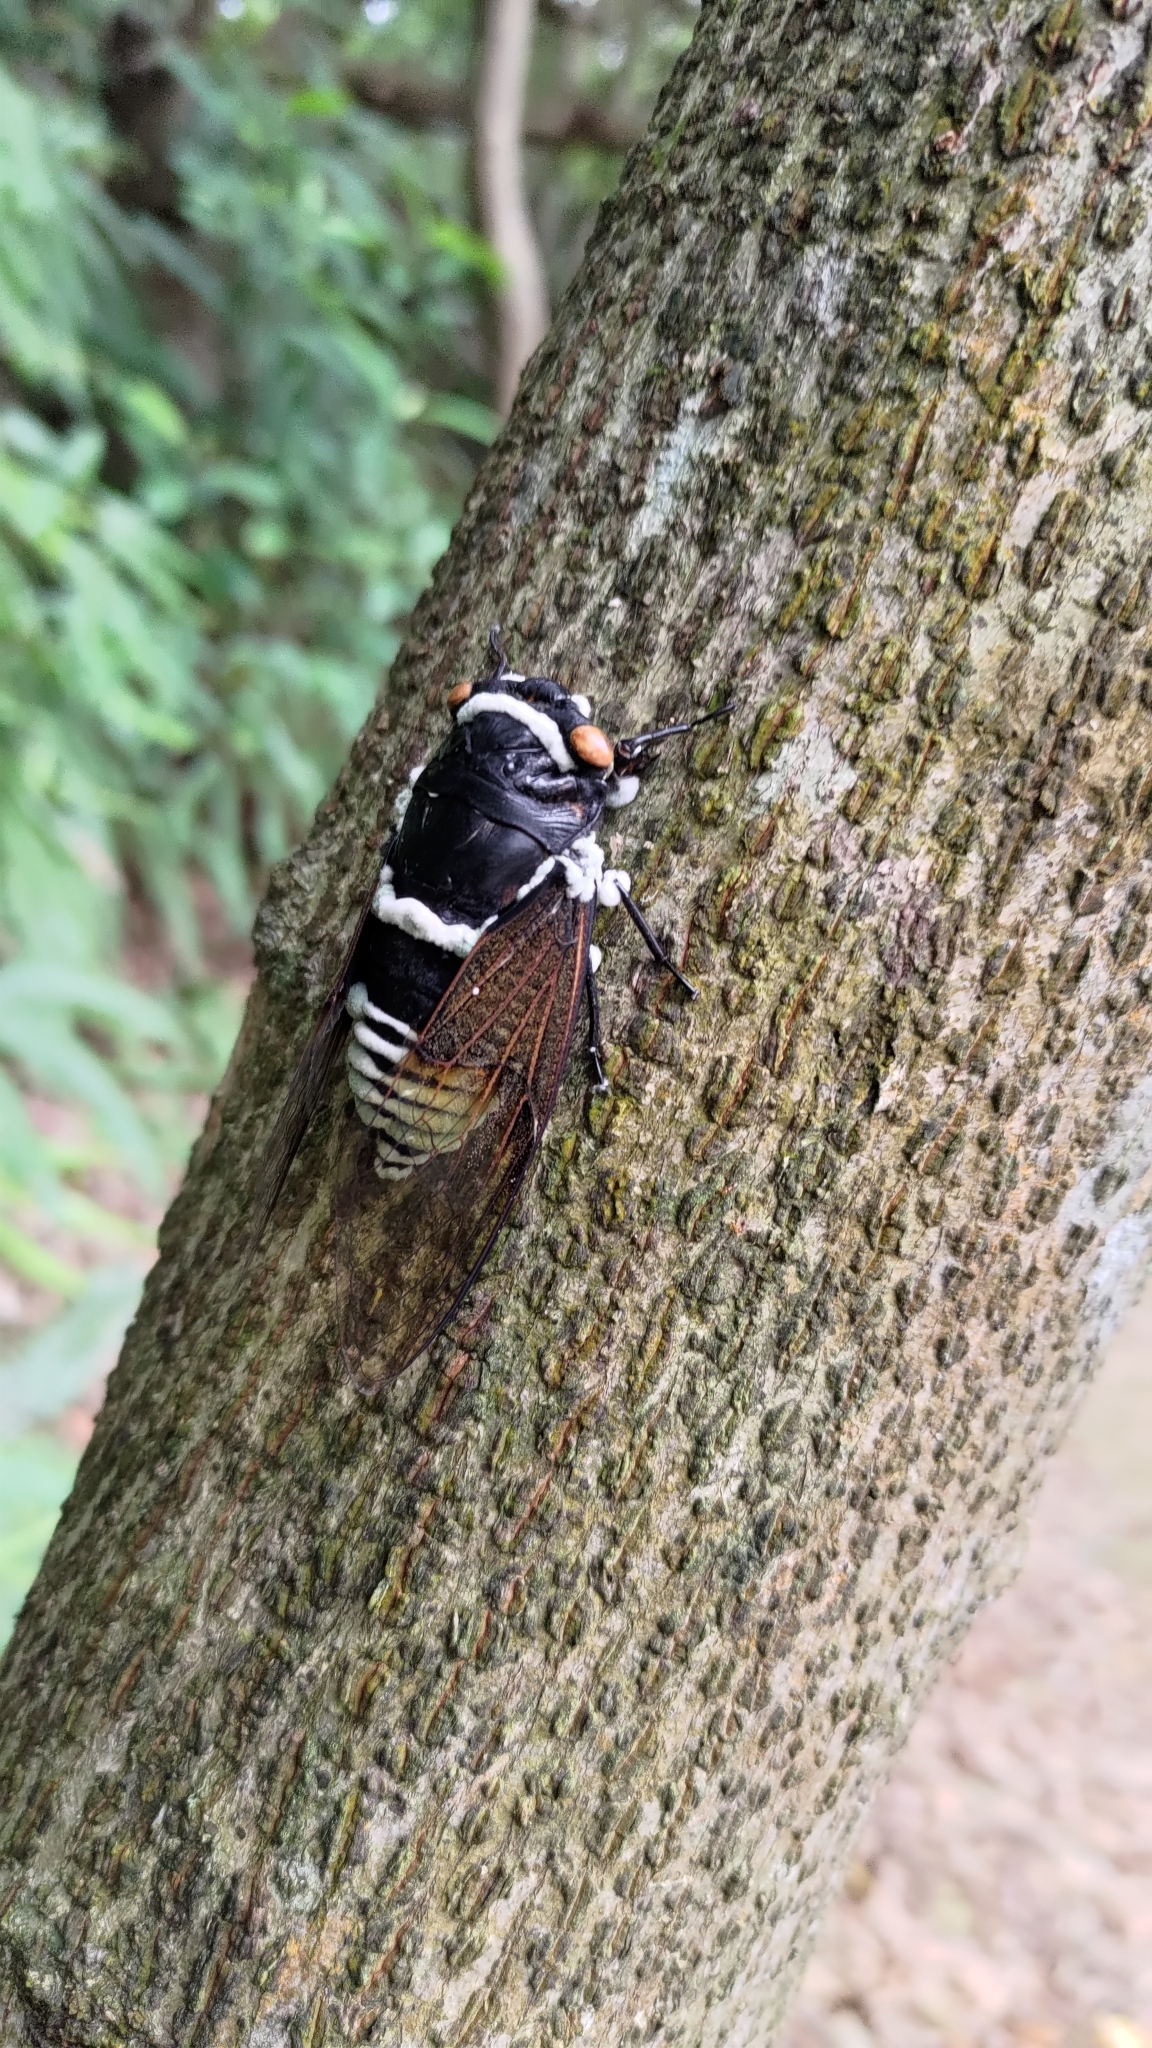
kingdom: Animalia
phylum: Arthropoda
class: Insecta
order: Hemiptera
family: Cicadidae
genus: Cryptotympana
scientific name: Cryptotympana holsti
